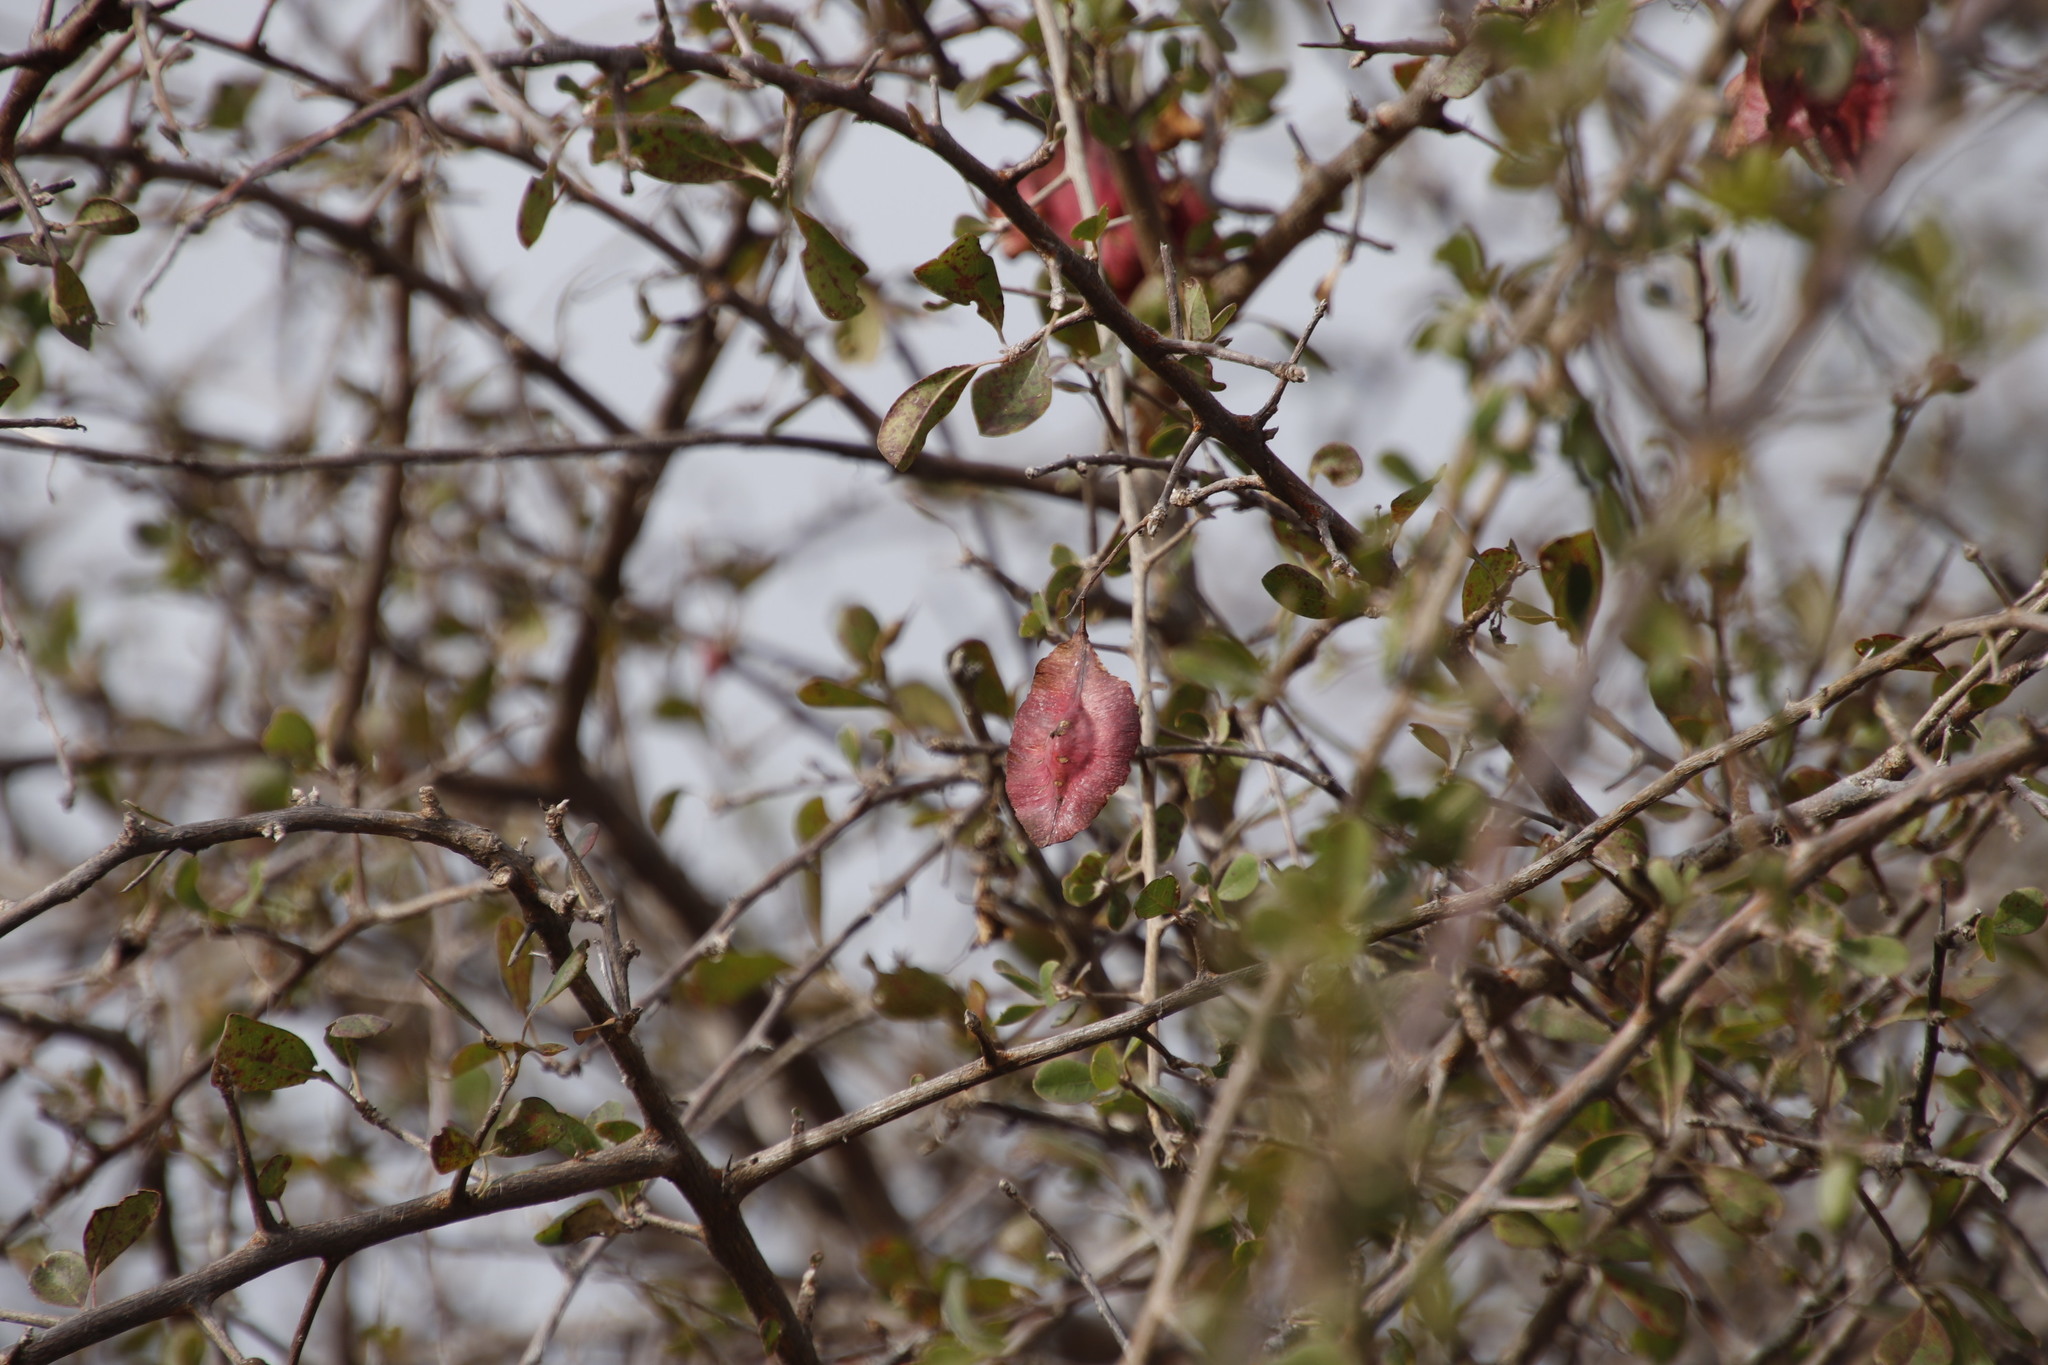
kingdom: Plantae
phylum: Tracheophyta
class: Magnoliopsida
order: Myrtales
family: Combretaceae
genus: Terminalia
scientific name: Terminalia prunioides
